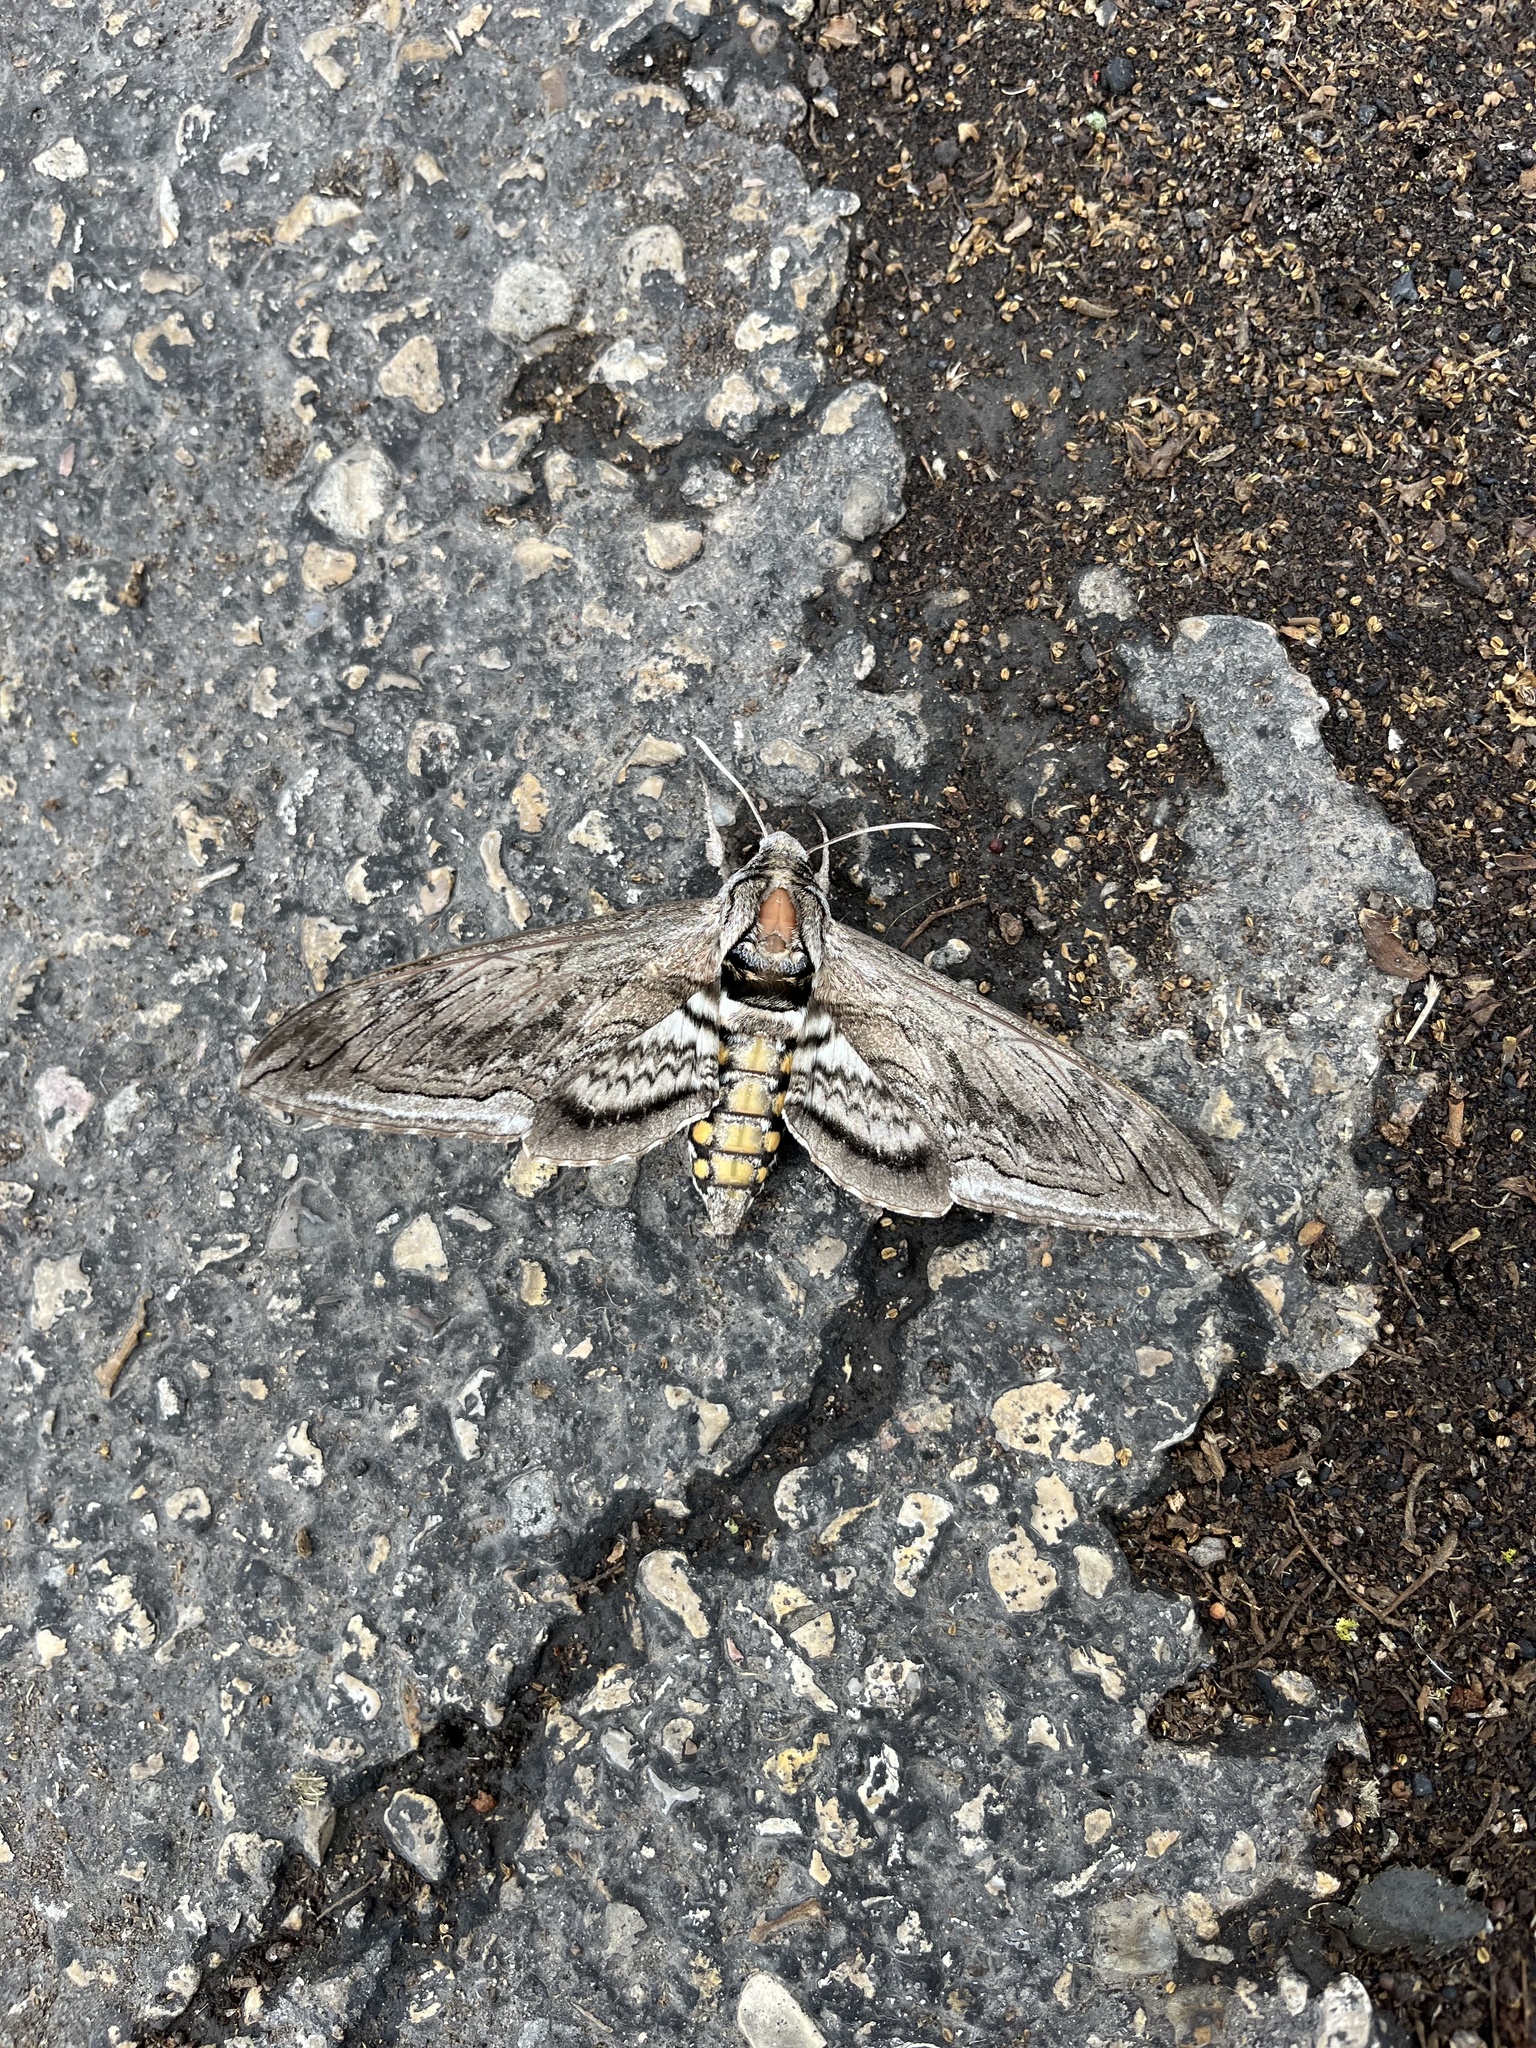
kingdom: Animalia
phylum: Arthropoda
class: Insecta
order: Lepidoptera
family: Sphingidae
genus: Manduca
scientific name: Manduca quinquemaculatus
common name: Five-spotted hawk-moth
